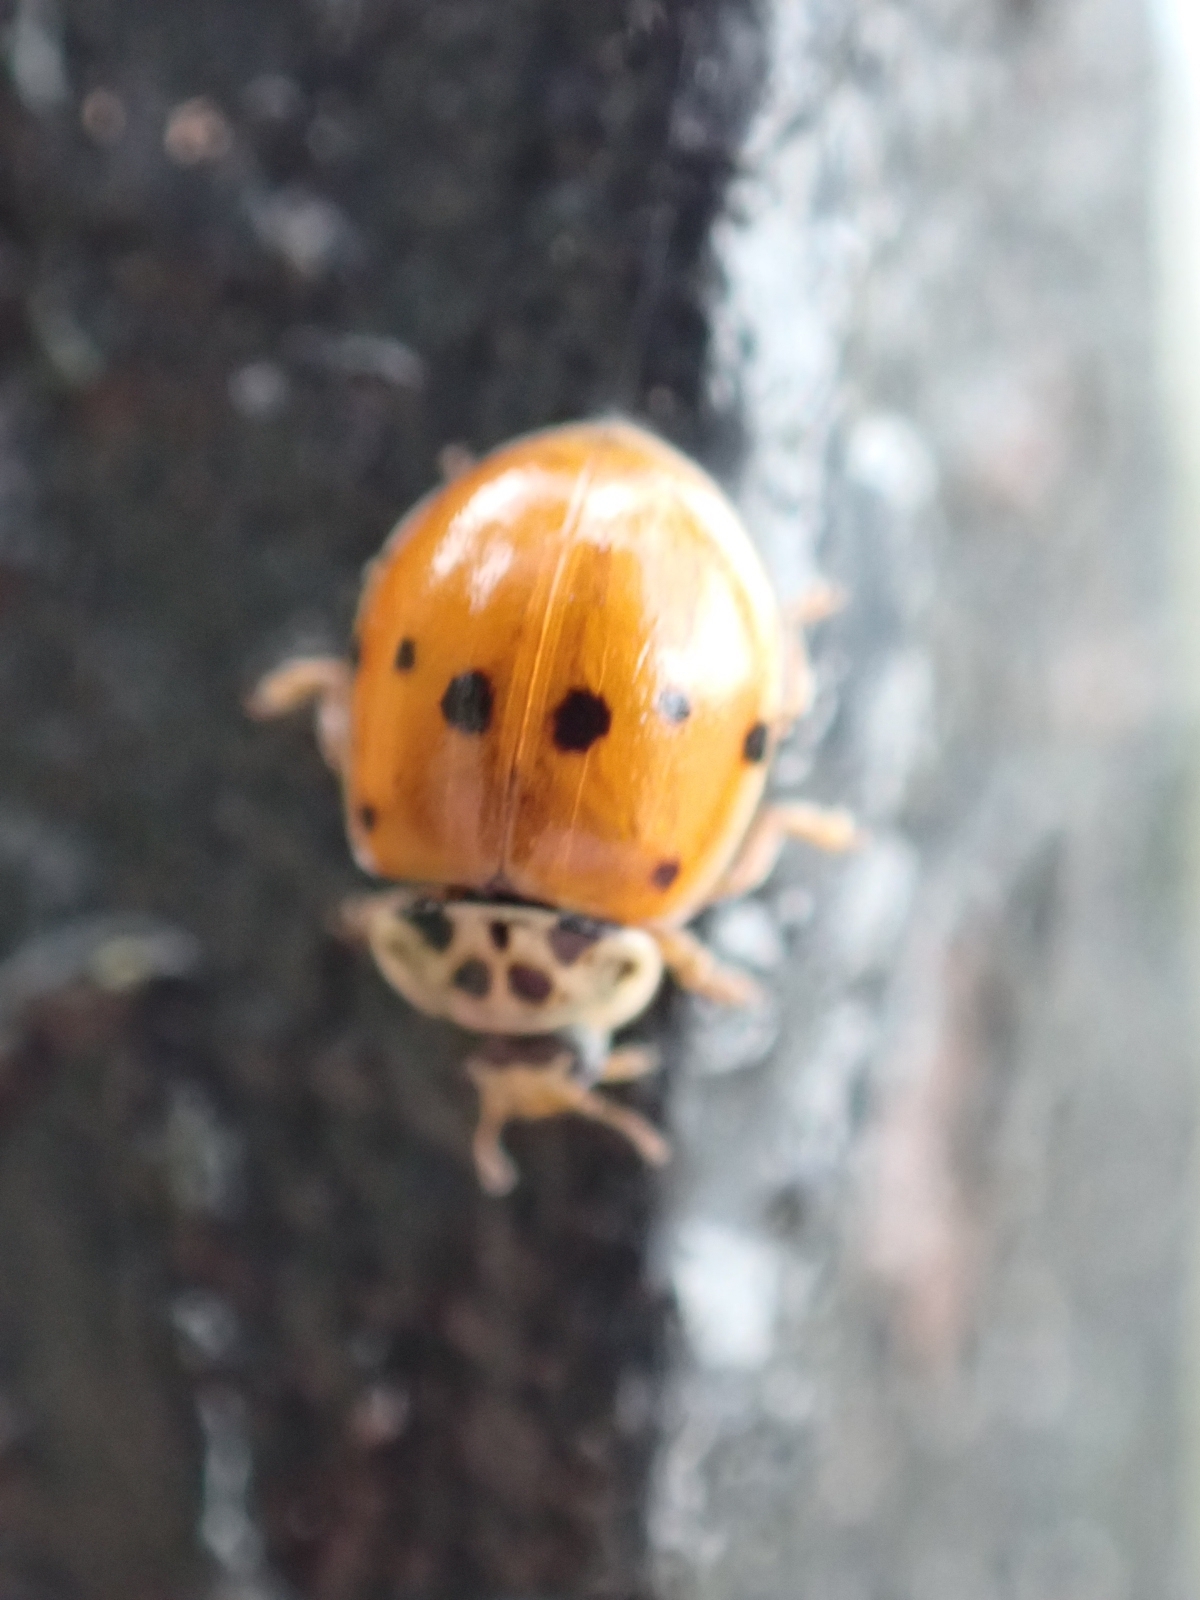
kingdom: Animalia
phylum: Arthropoda
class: Insecta
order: Coleoptera
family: Coccinellidae
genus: Adalia
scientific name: Adalia decempunctata
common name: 10-spot ladybird
